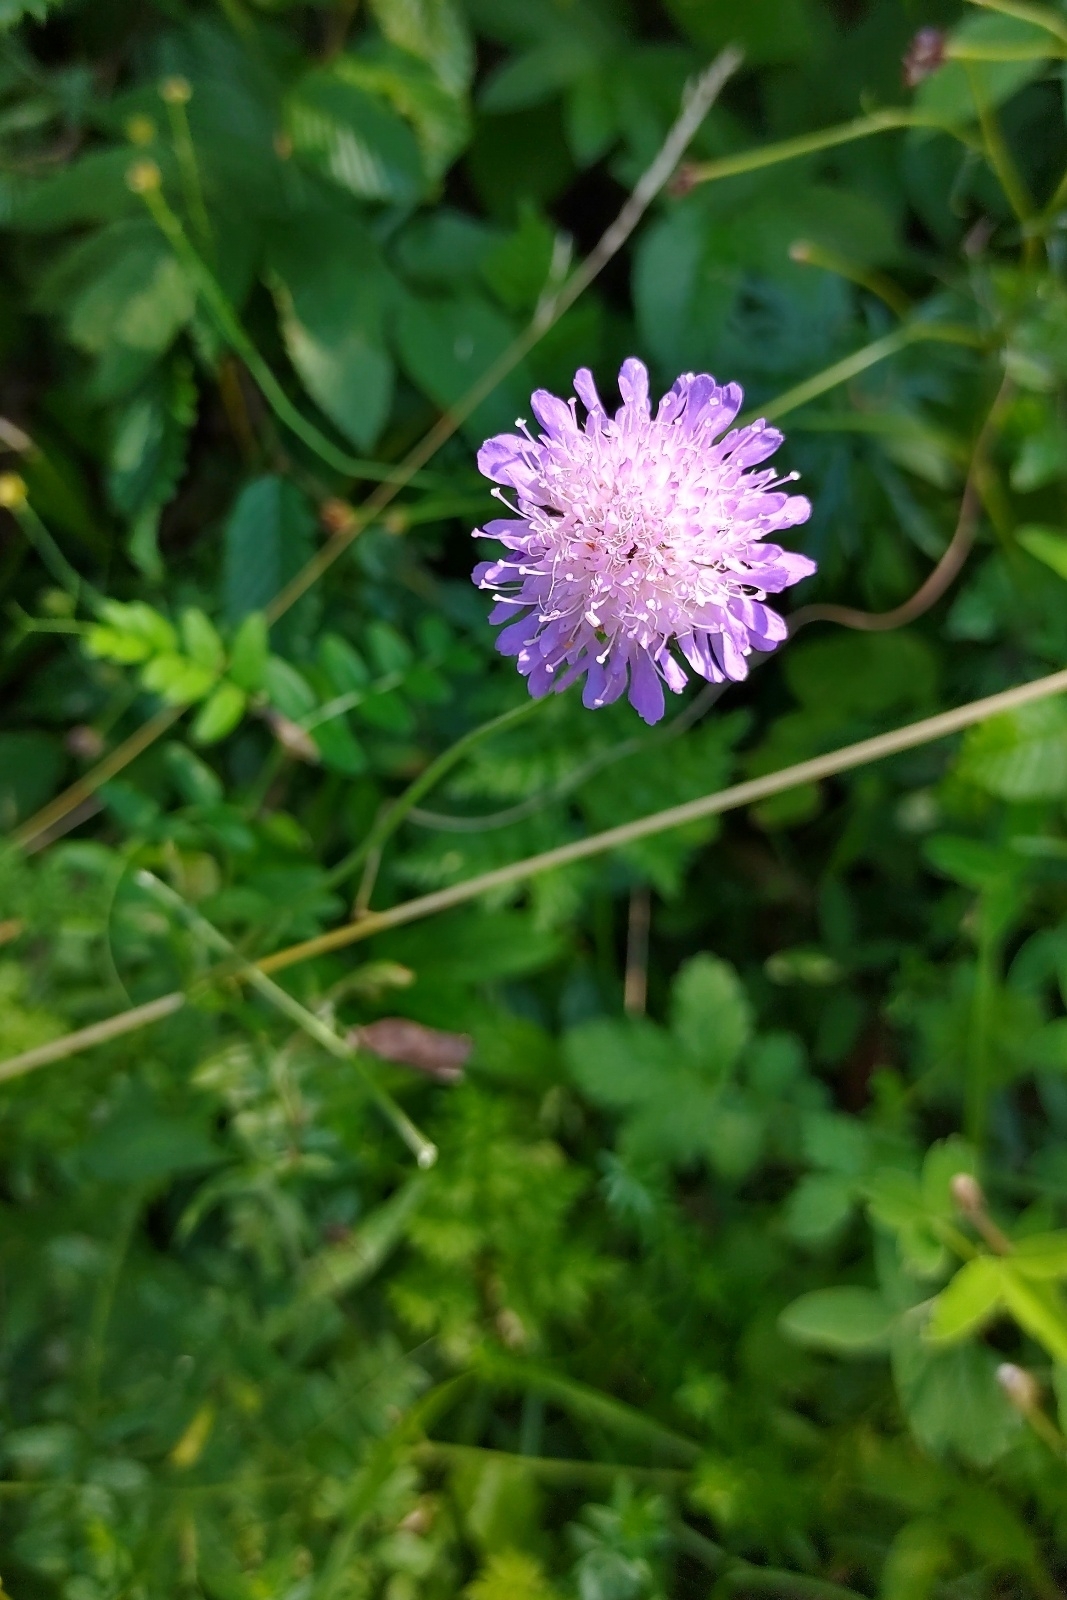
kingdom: Plantae
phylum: Tracheophyta
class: Magnoliopsida
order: Dipsacales
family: Caprifoliaceae
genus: Knautia
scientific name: Knautia arvensis
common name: Field scabiosa
